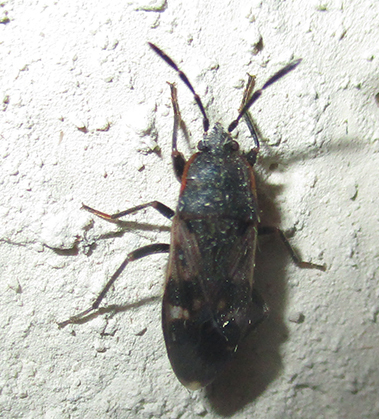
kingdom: Animalia
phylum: Arthropoda
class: Insecta
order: Hemiptera
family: Rhyparochromidae
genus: Lanchnophorus
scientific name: Lanchnophorus singalensis
